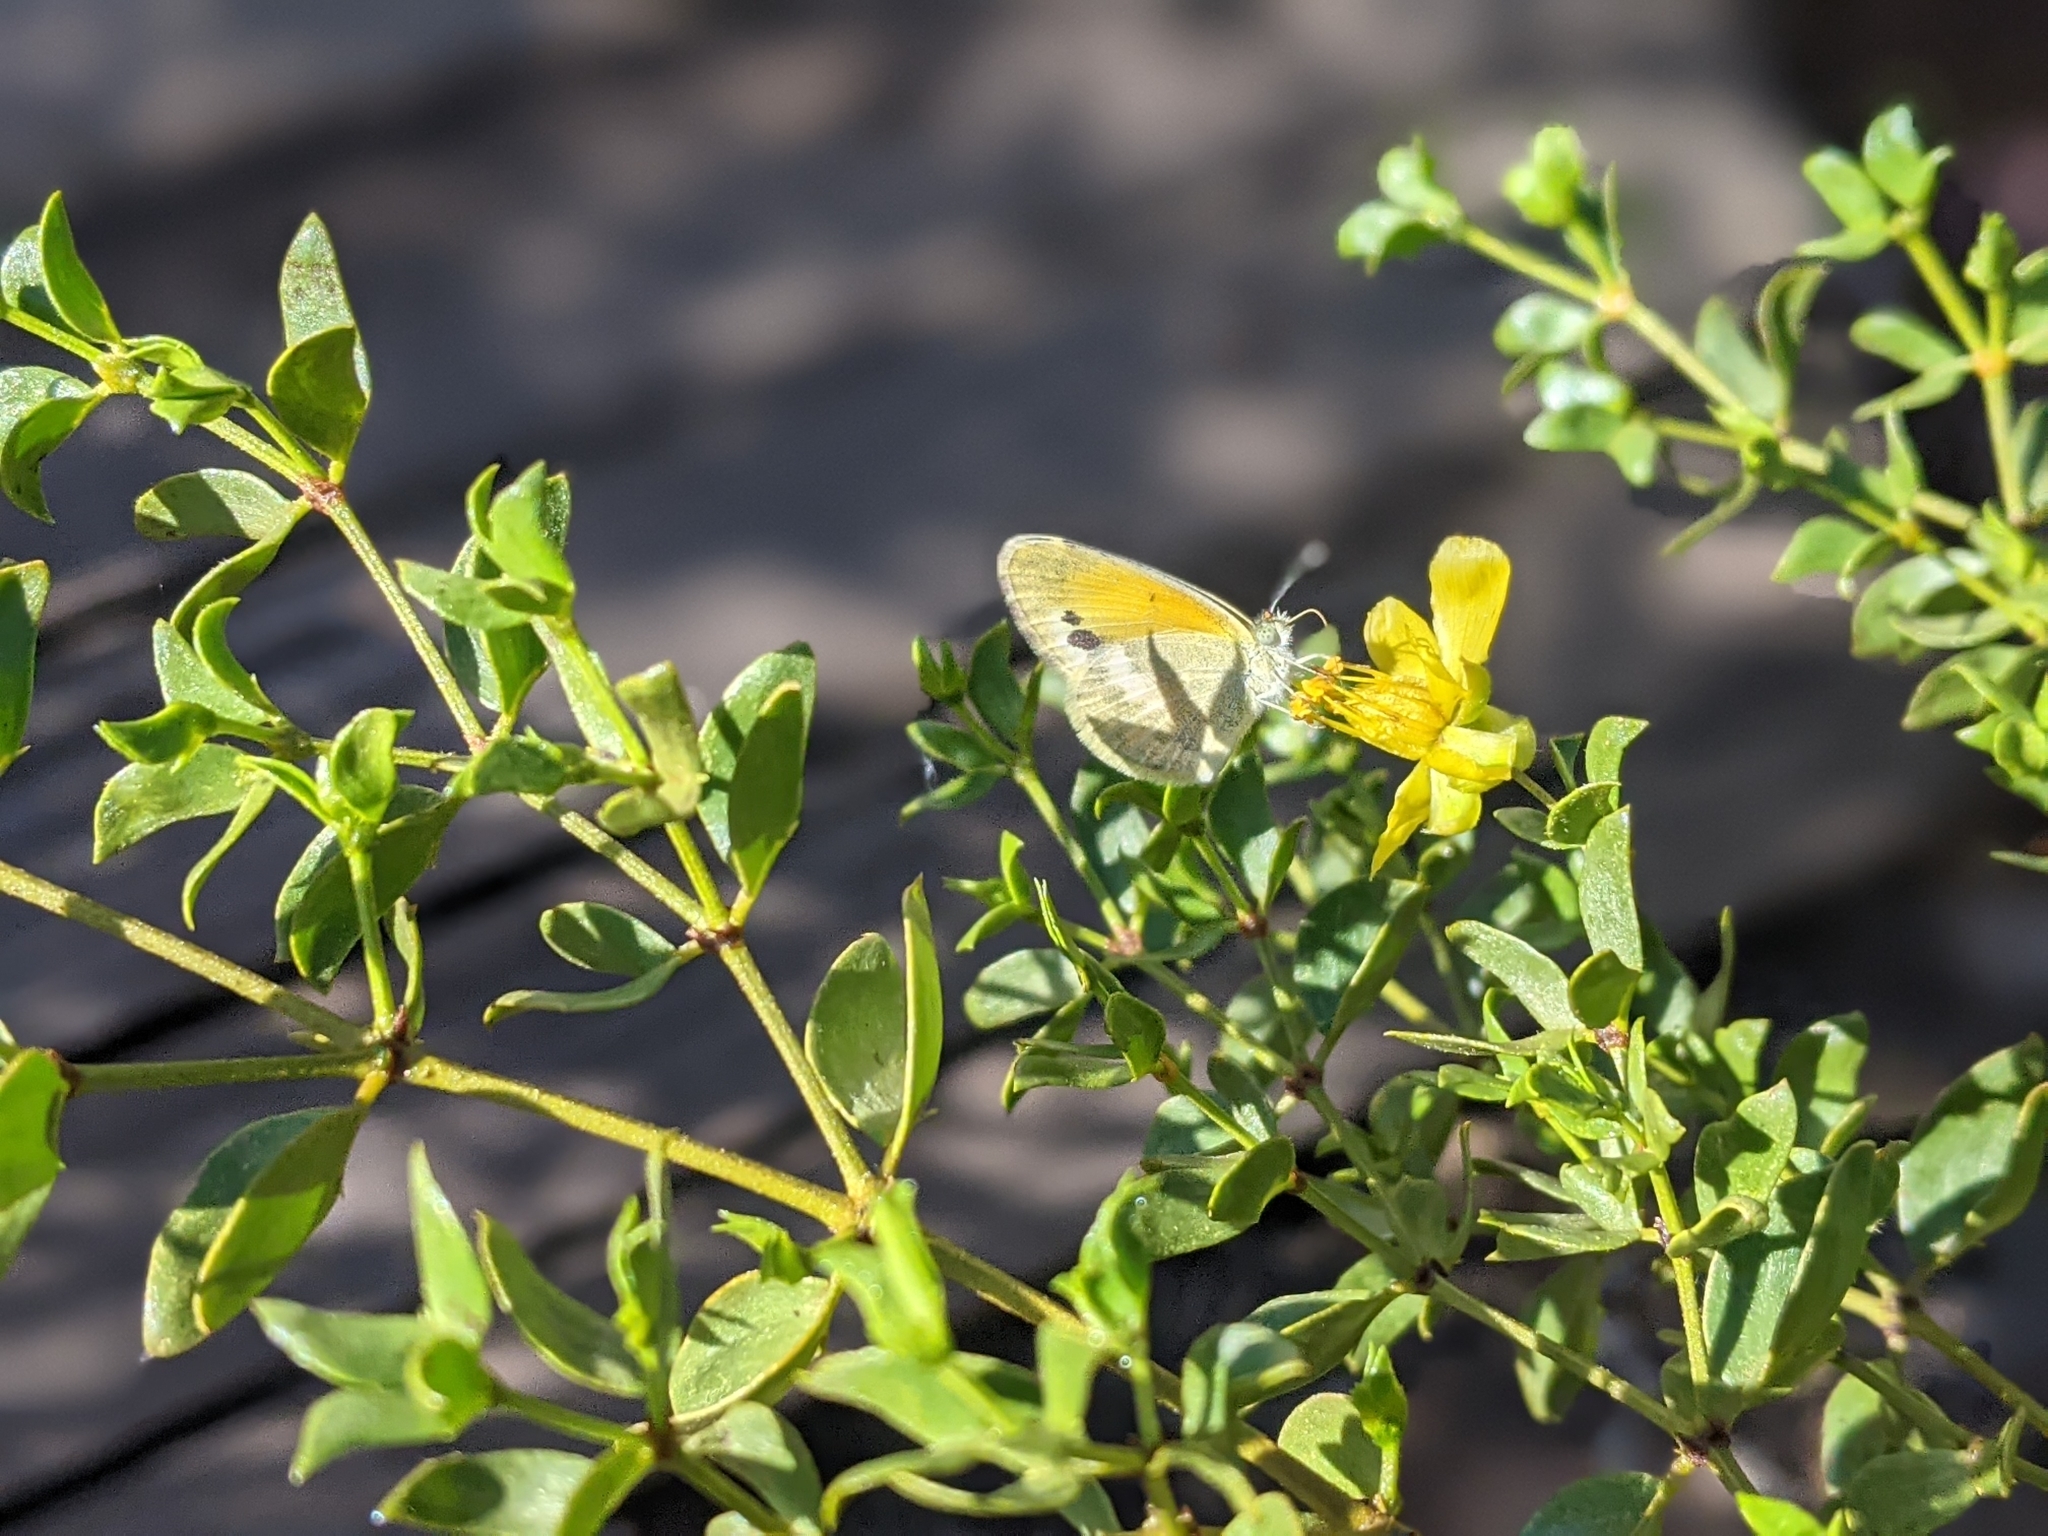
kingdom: Animalia
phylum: Arthropoda
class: Insecta
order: Lepidoptera
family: Pieridae
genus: Nathalis
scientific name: Nathalis iole
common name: Dainty sulphur
